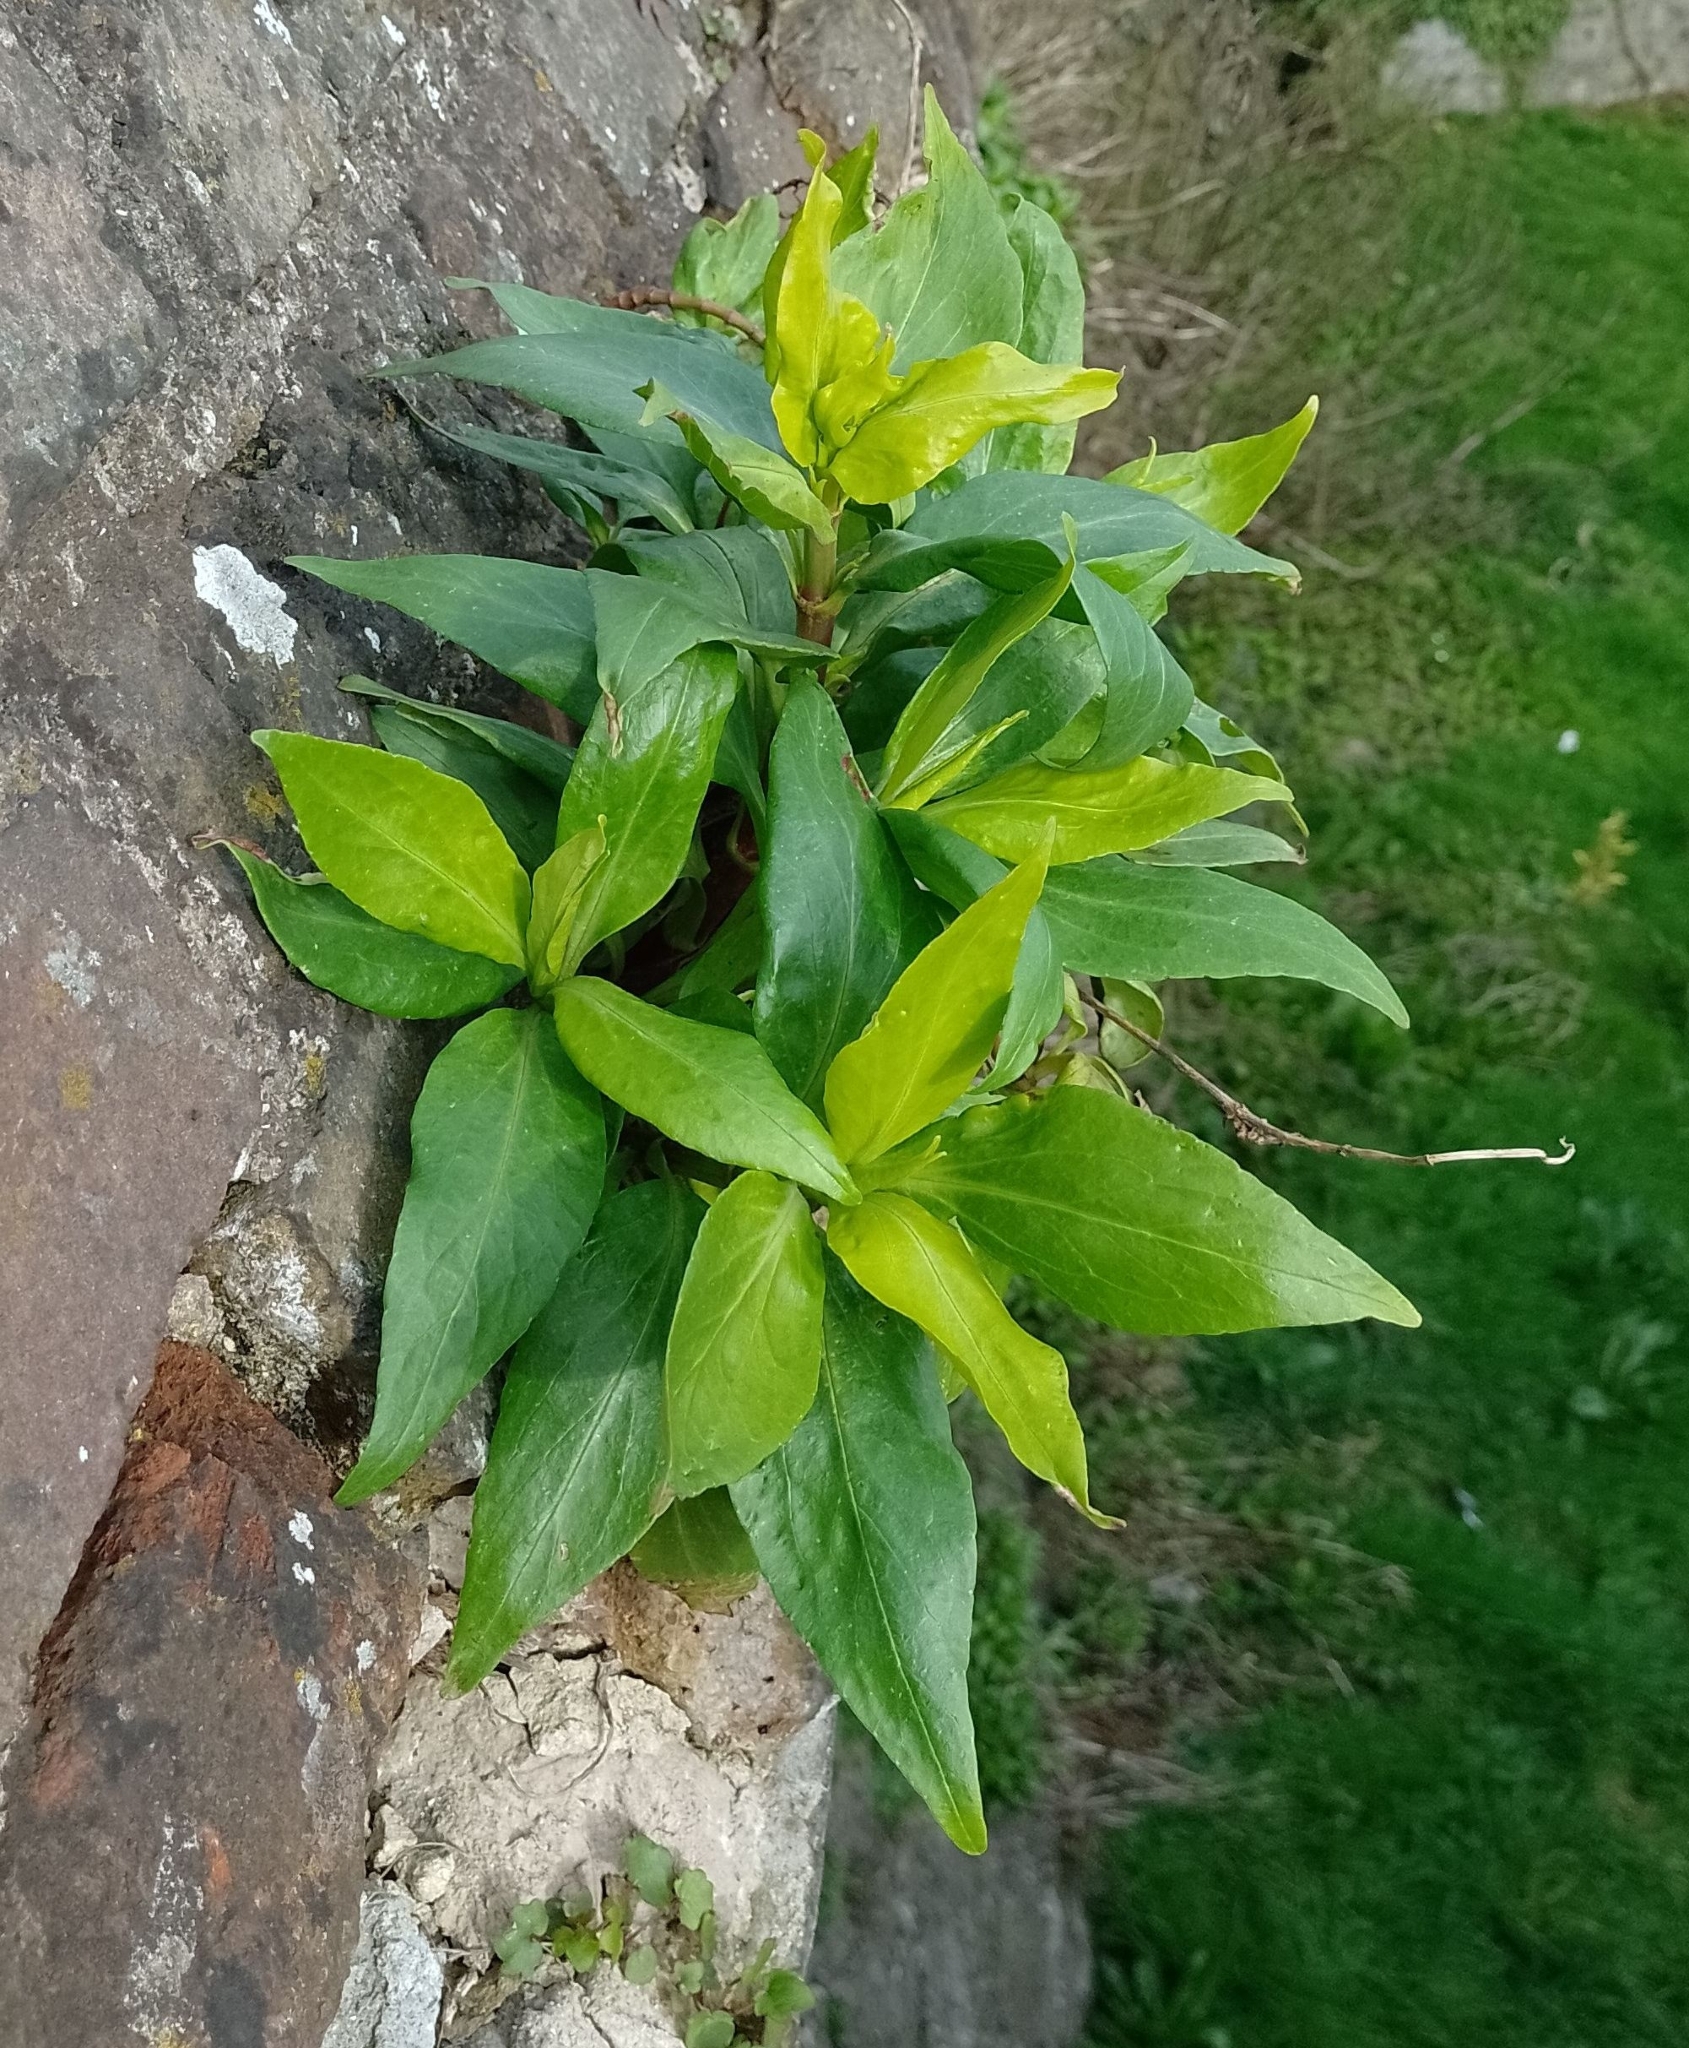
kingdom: Plantae
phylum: Tracheophyta
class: Magnoliopsida
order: Dipsacales
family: Caprifoliaceae
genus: Centranthus
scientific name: Centranthus ruber
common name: Red valerian
